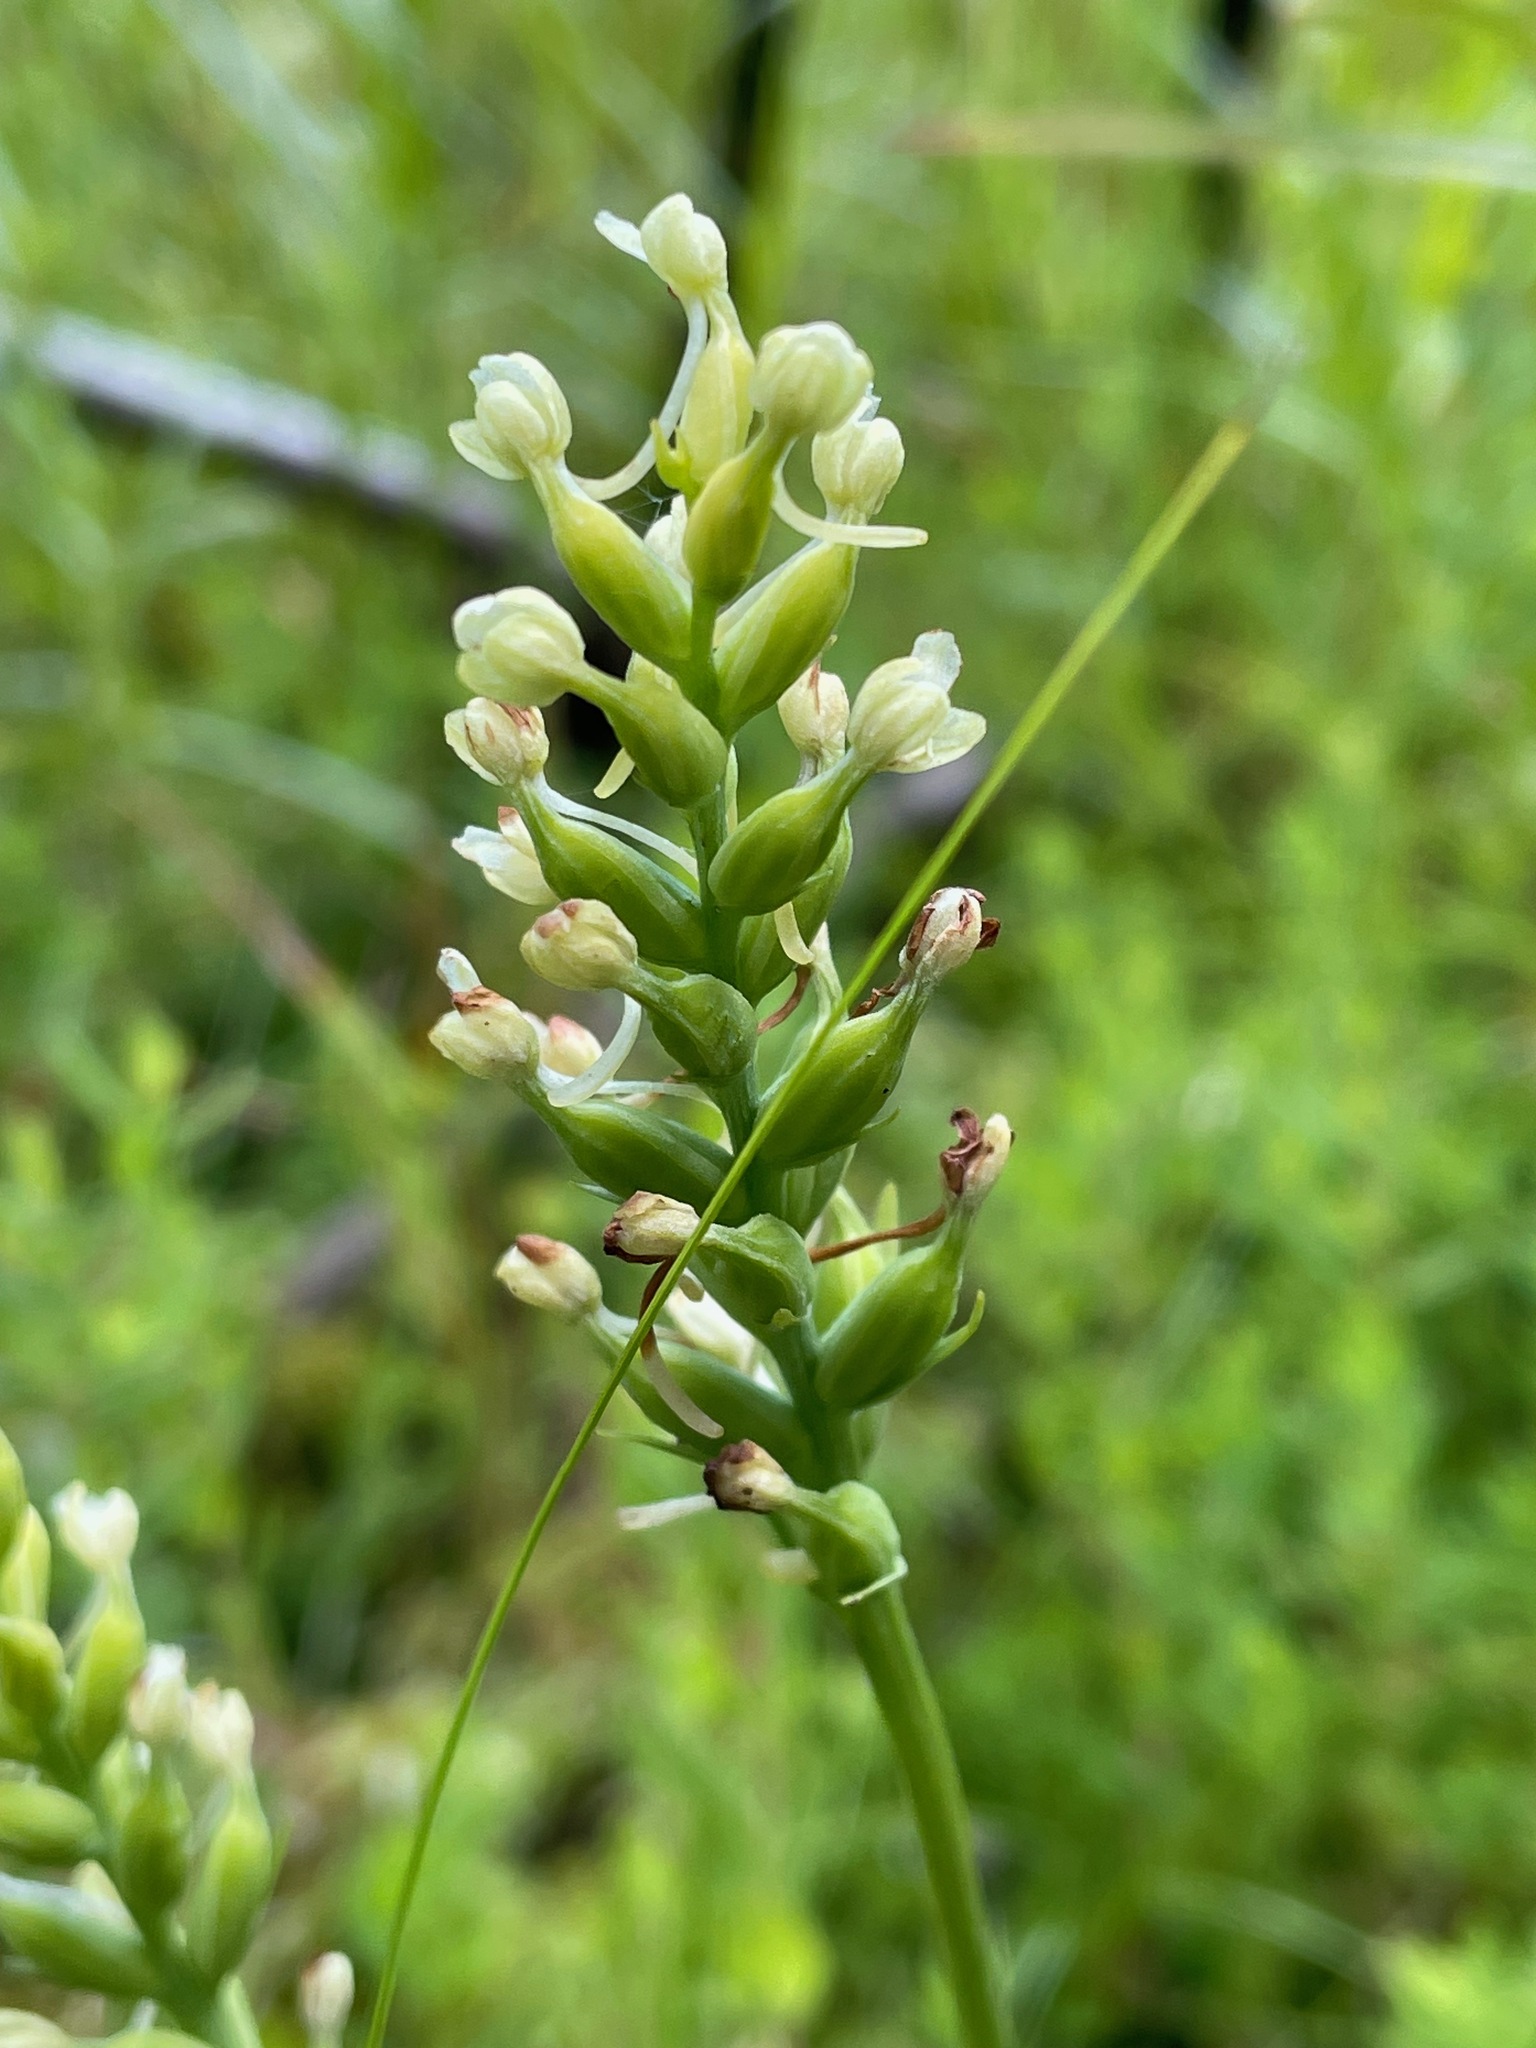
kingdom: Plantae
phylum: Tracheophyta
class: Liliopsida
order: Asparagales
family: Orchidaceae
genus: Platanthera
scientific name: Platanthera clavellata
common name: Club-spur orchid
